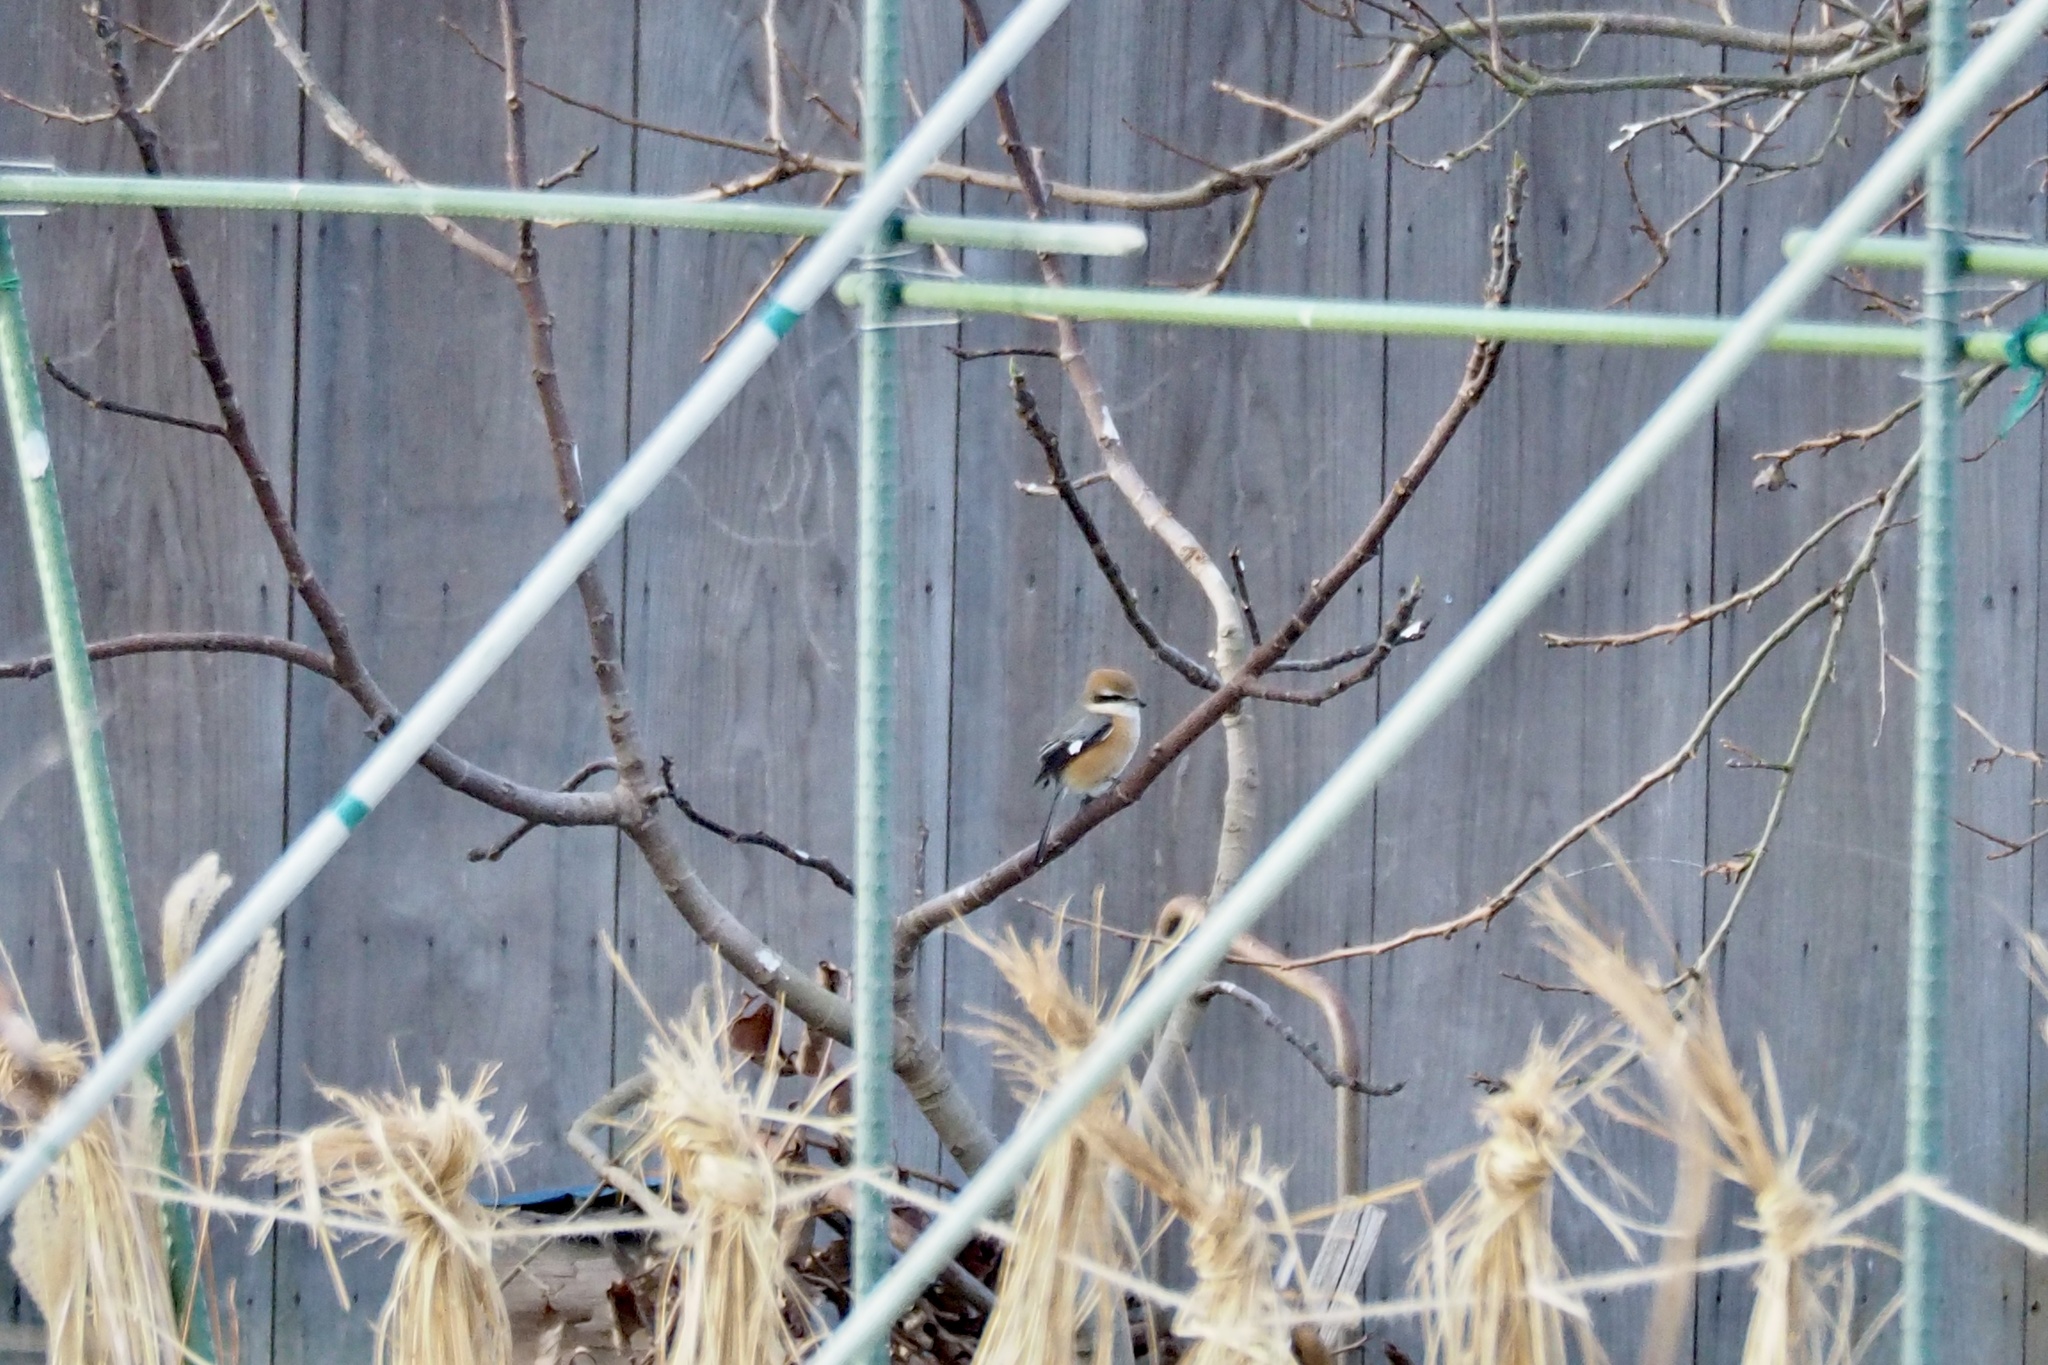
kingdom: Animalia
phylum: Chordata
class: Aves
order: Passeriformes
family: Laniidae
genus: Lanius
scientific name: Lanius bucephalus
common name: Bull-headed shrike
